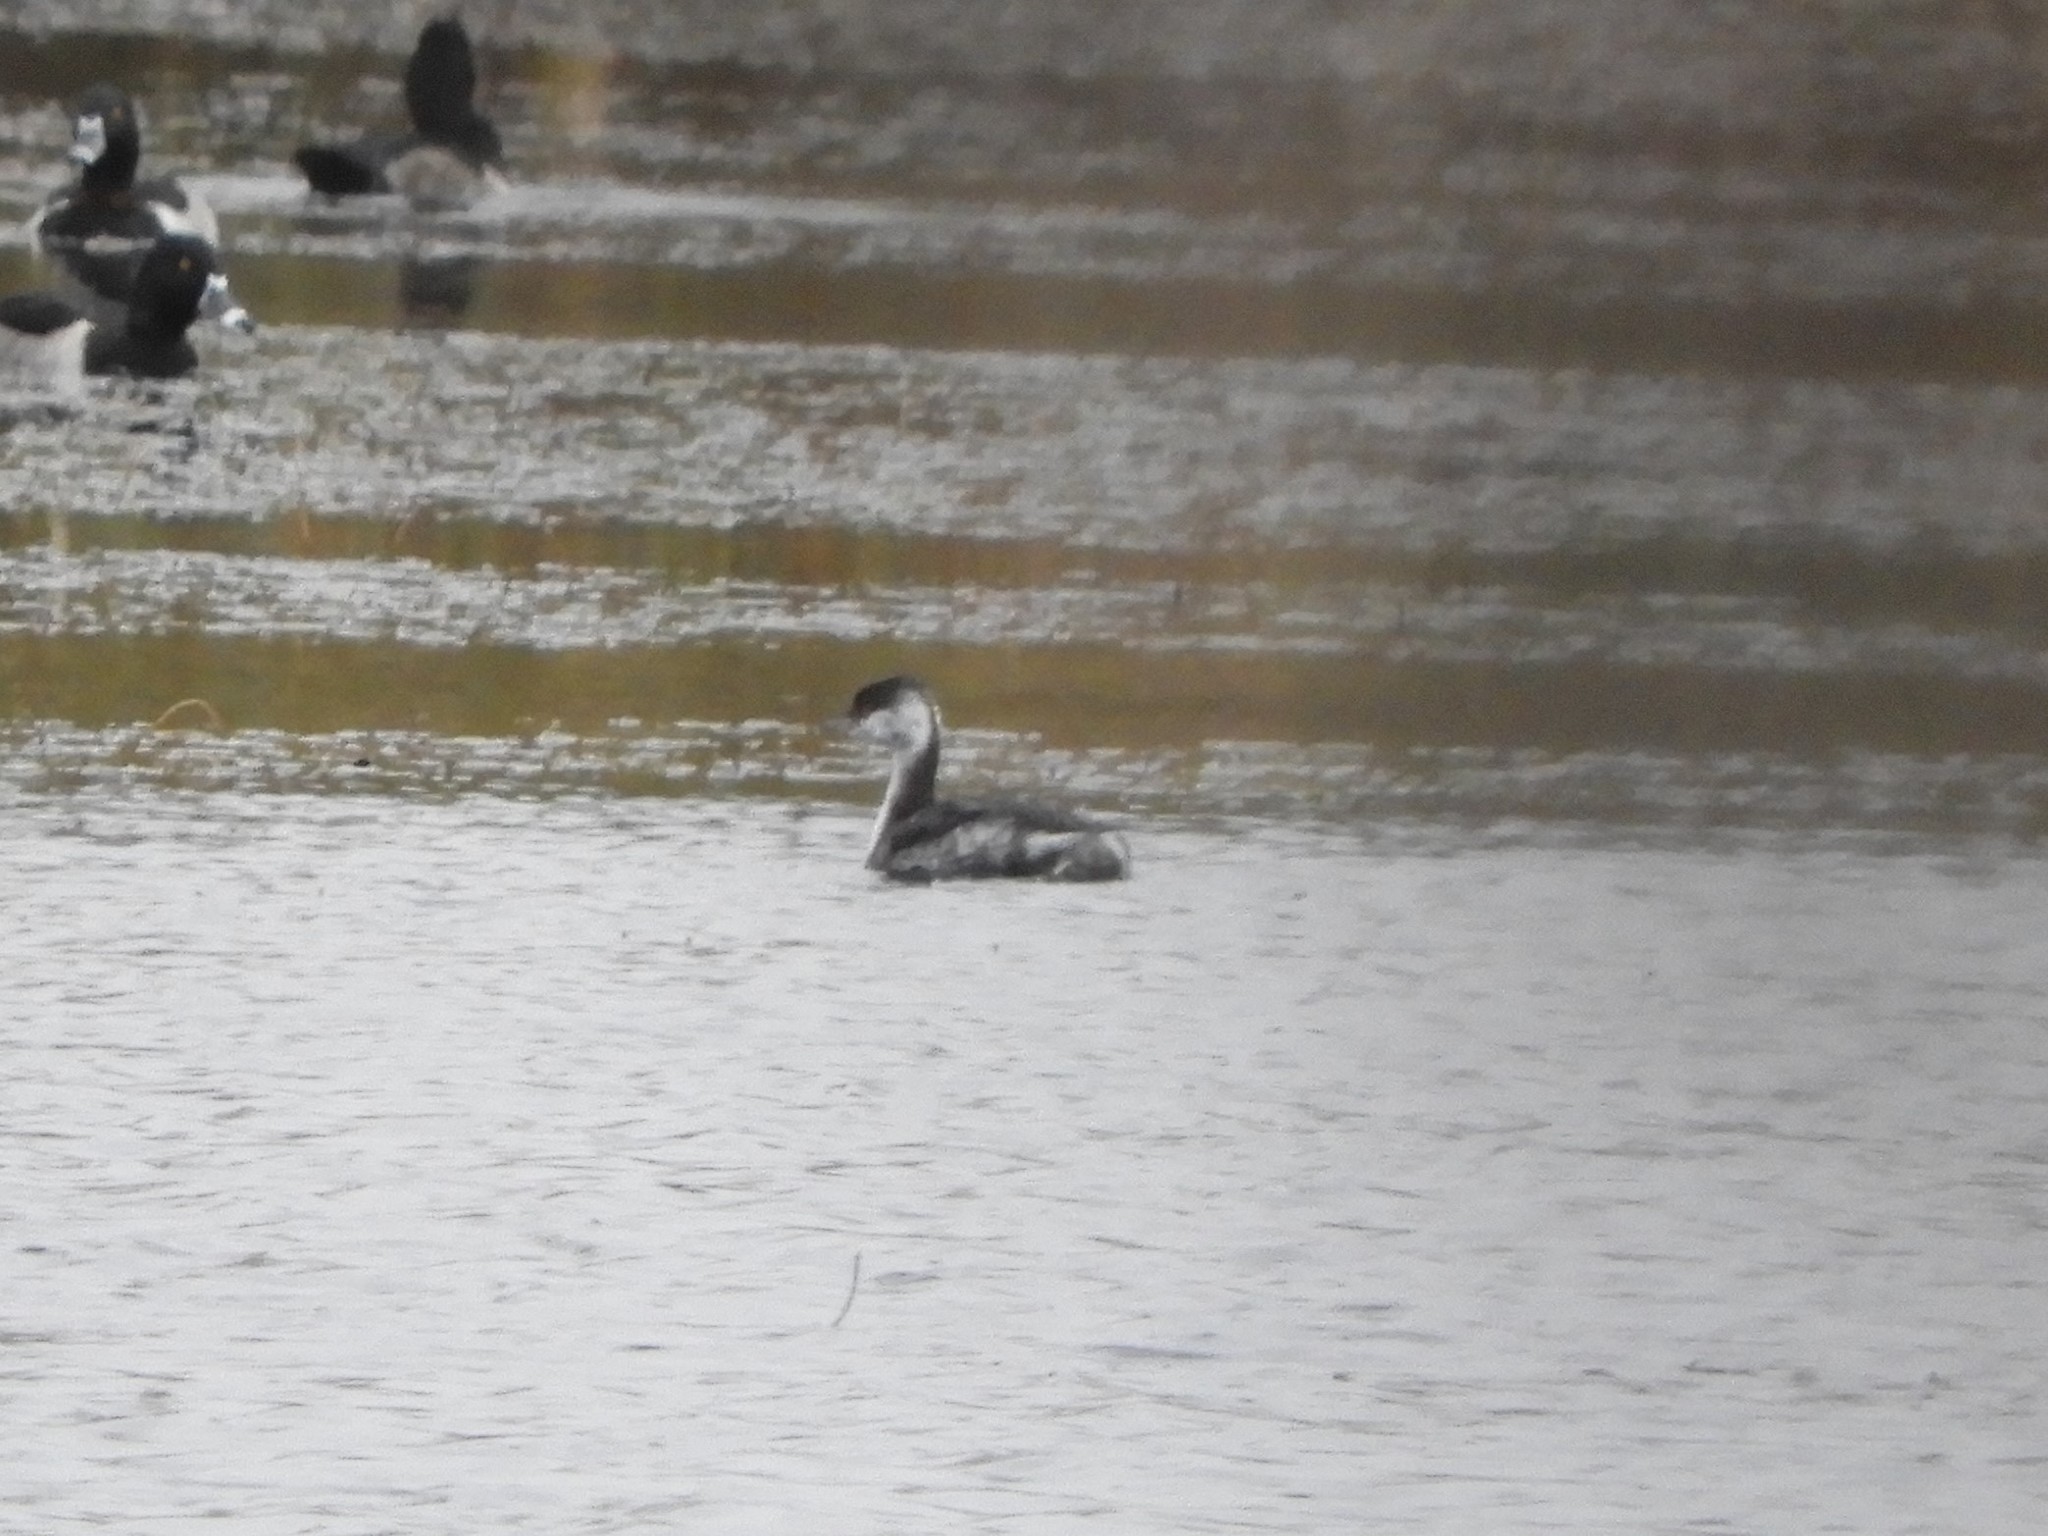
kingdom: Animalia
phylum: Chordata
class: Aves
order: Podicipediformes
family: Podicipedidae
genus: Podiceps
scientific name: Podiceps auritus
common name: Horned grebe
